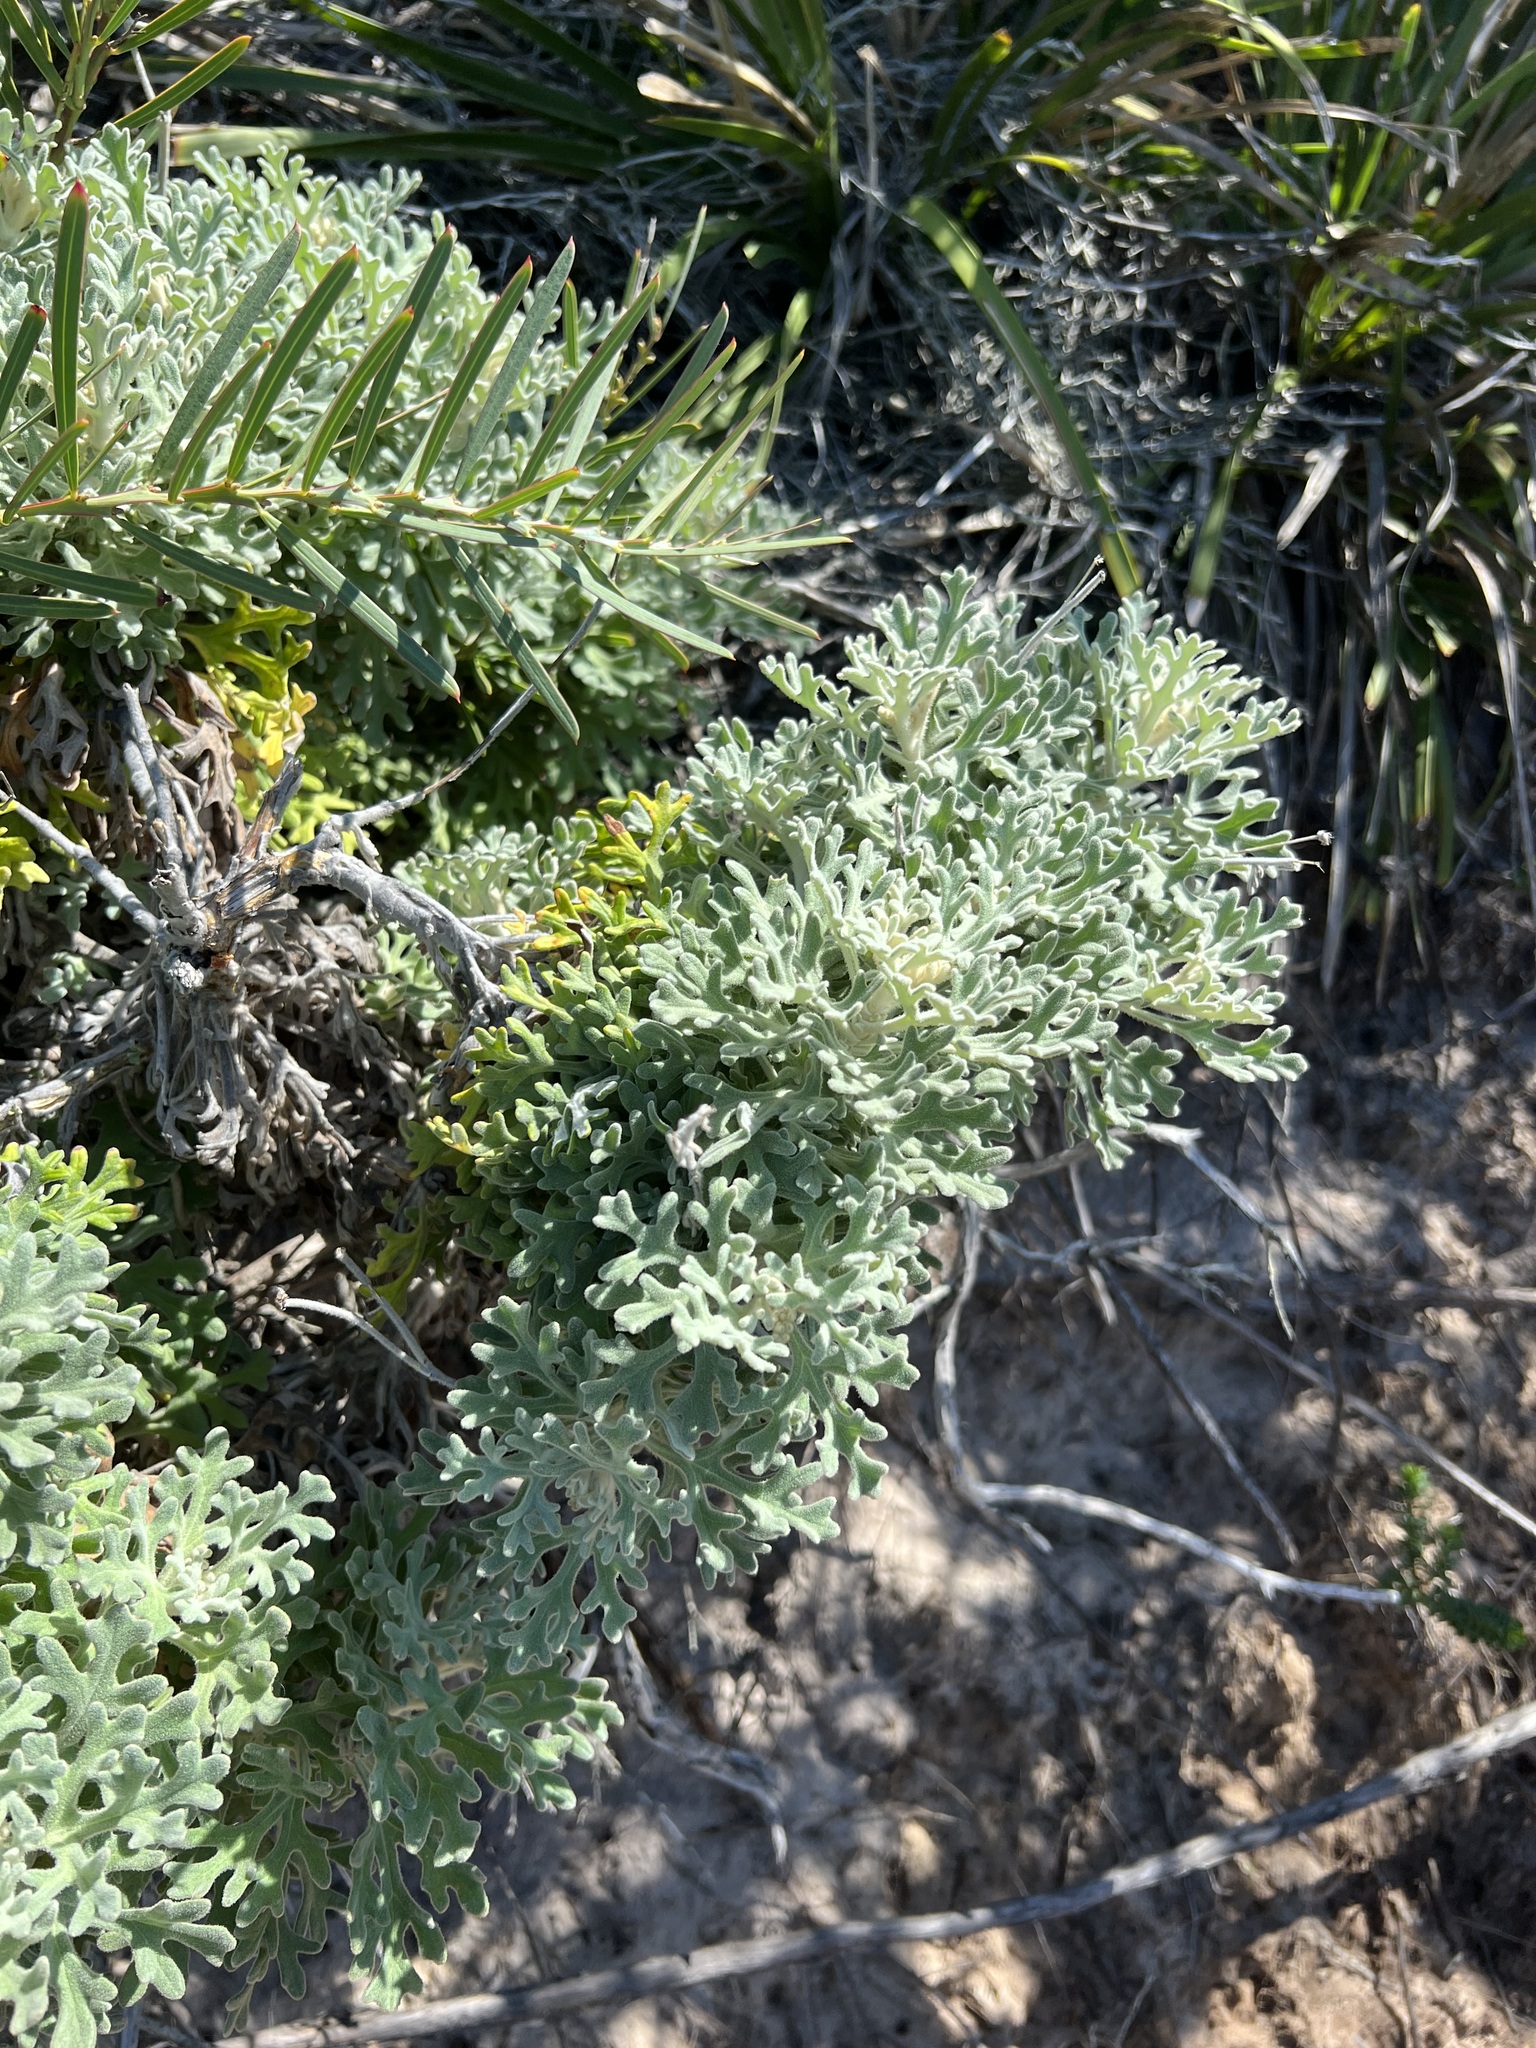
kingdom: Plantae
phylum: Tracheophyta
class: Magnoliopsida
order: Apiales
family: Apiaceae
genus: Actinotus
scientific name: Actinotus helianthi
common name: Flannel-flower
